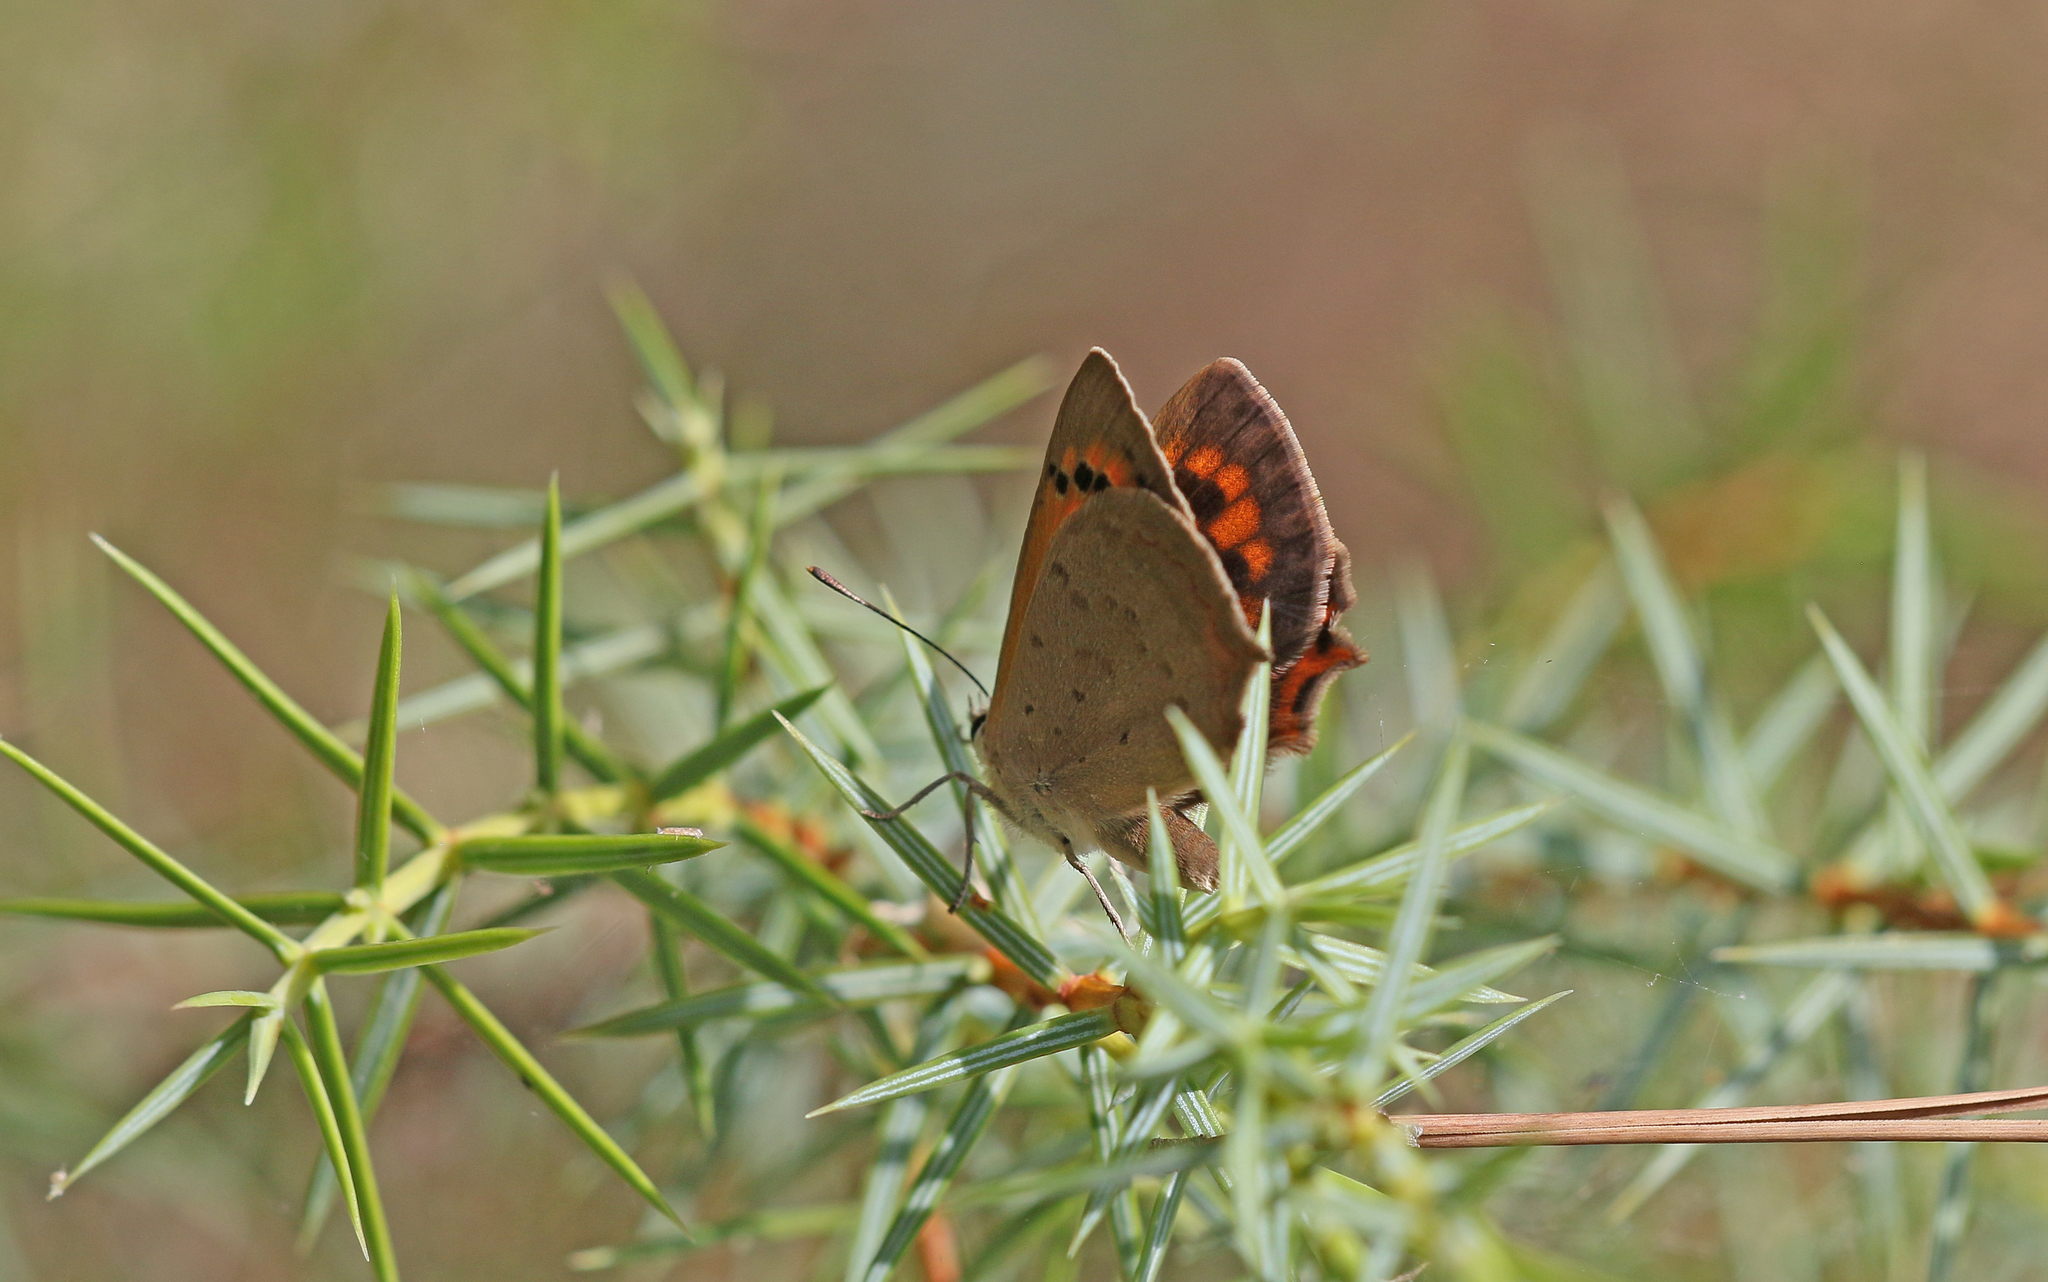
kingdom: Animalia
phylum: Arthropoda
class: Insecta
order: Lepidoptera
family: Lycaenidae
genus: Lycaena
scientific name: Lycaena phlaeas
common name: Small copper
